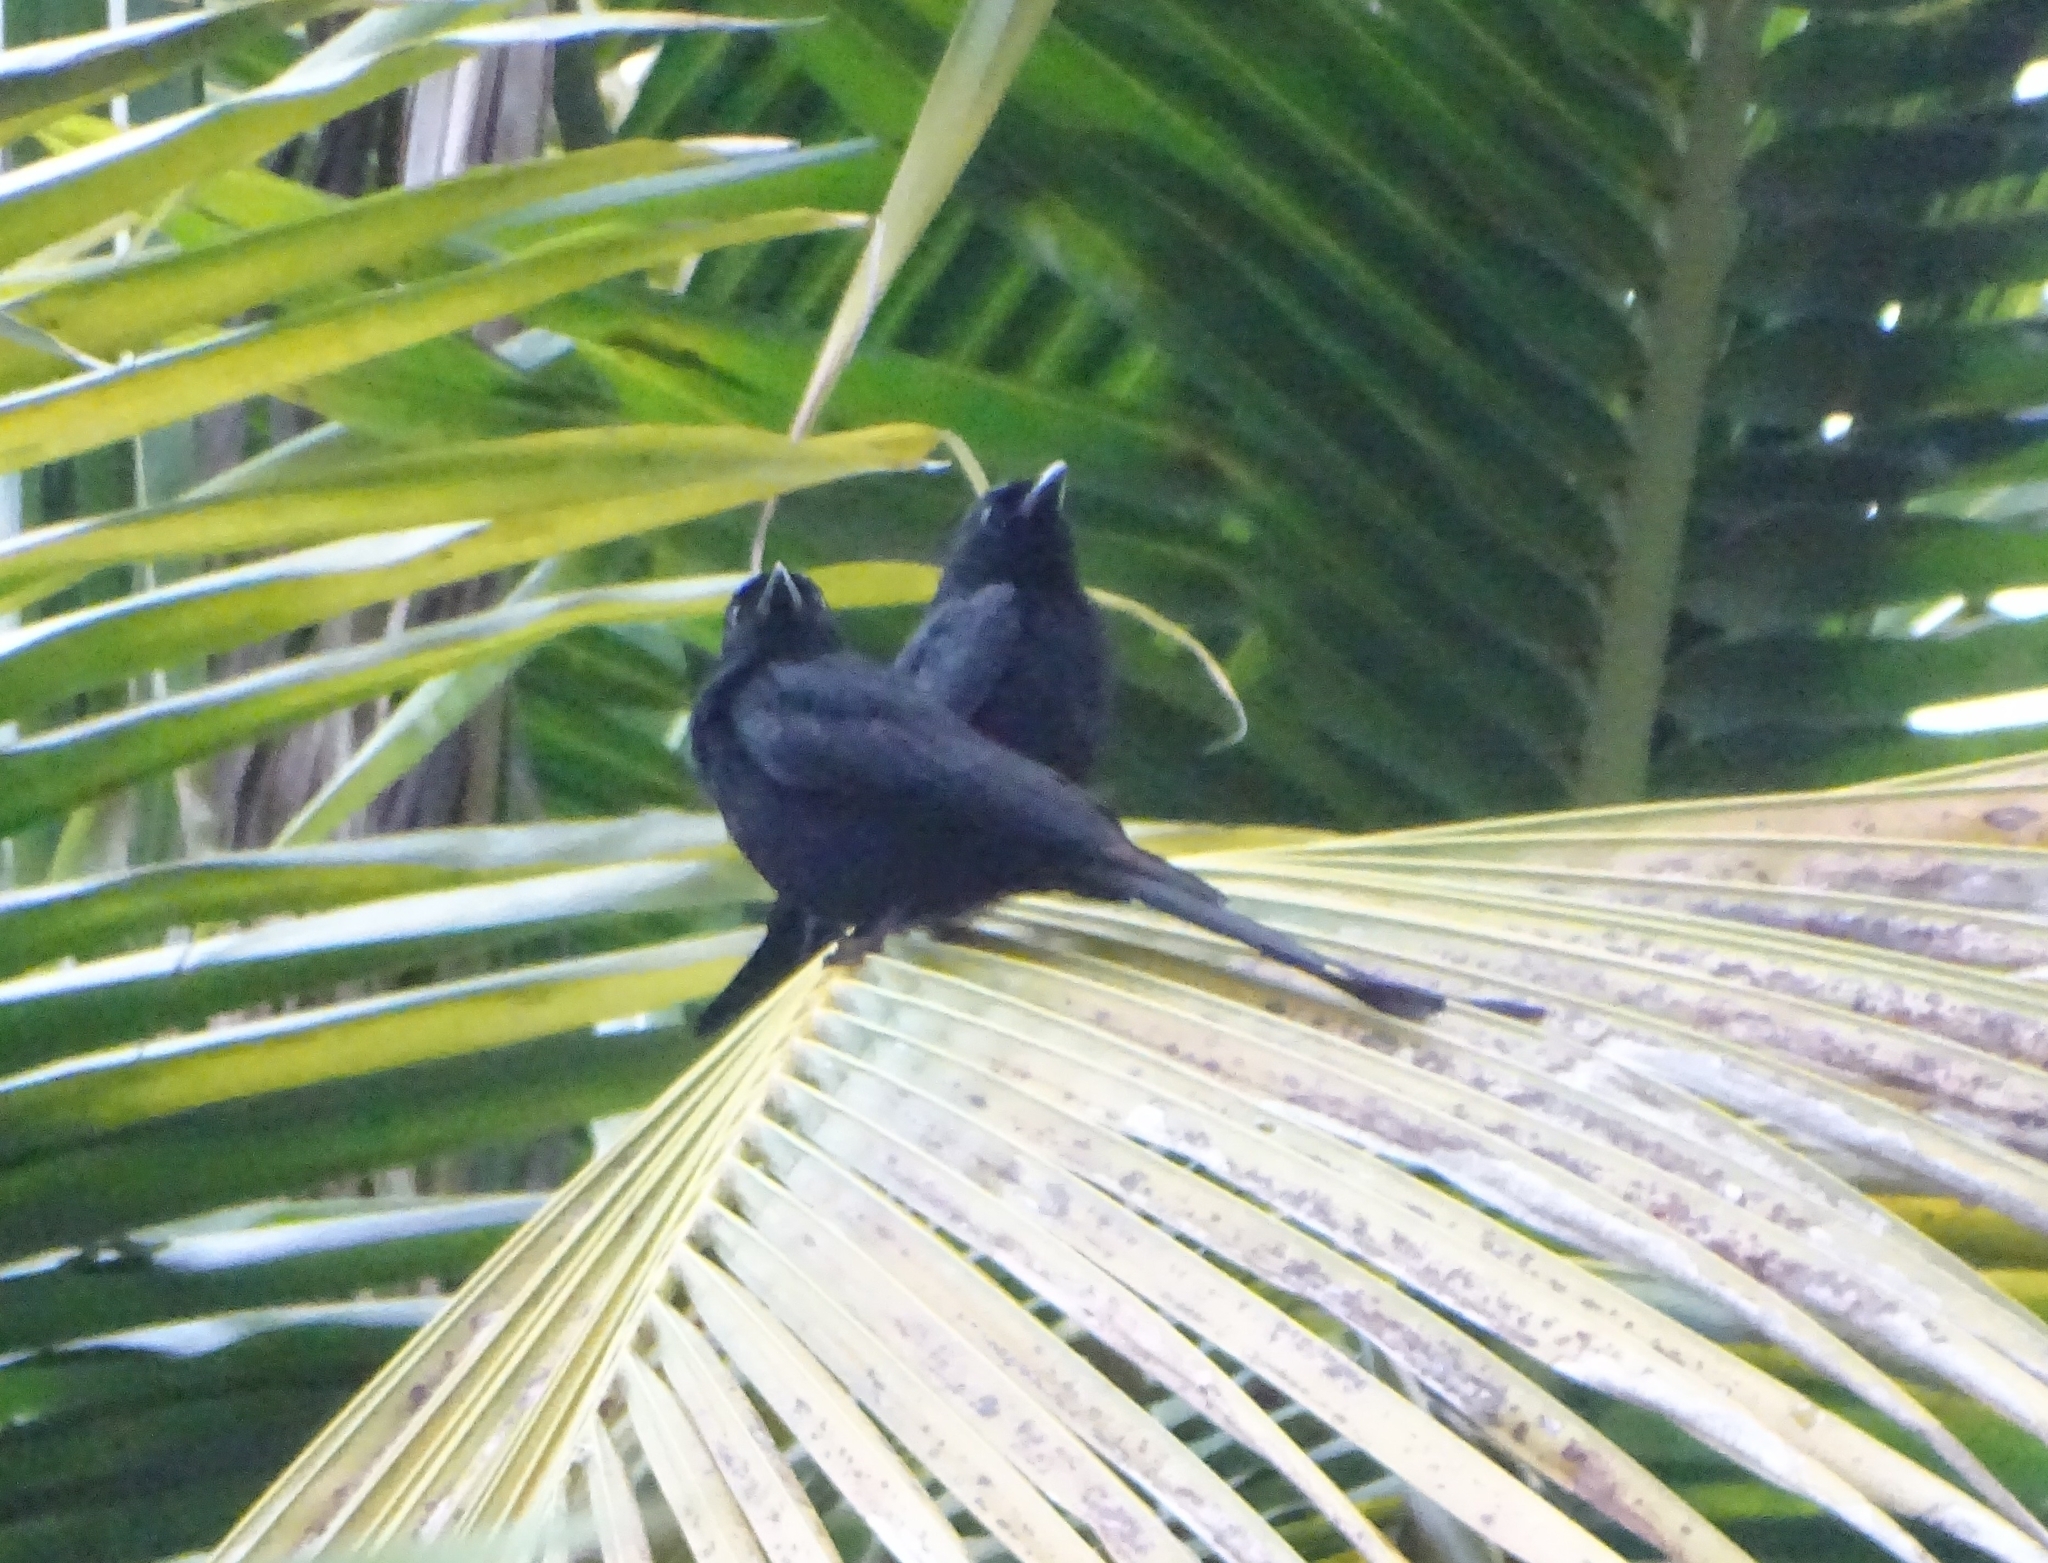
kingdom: Animalia
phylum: Chordata
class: Aves
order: Passeriformes
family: Dicruridae
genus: Dicrurus
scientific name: Dicrurus macrocercus
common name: Black drongo
